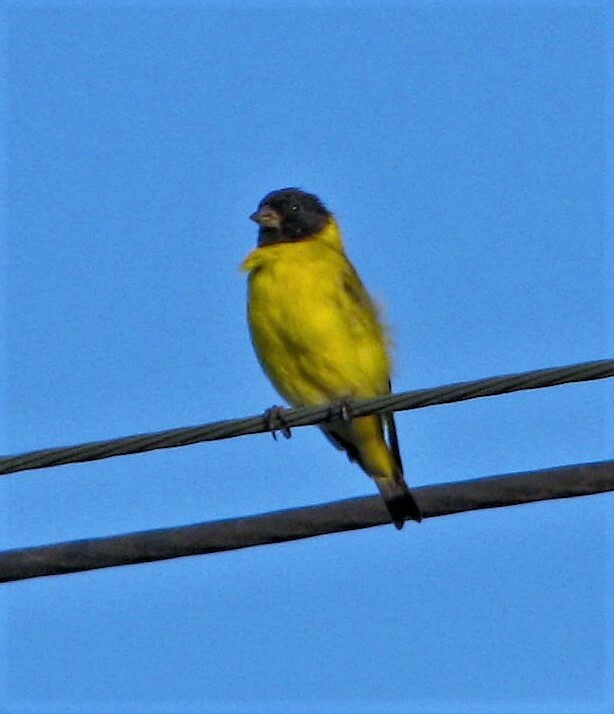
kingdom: Animalia
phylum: Chordata
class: Aves
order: Passeriformes
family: Fringillidae
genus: Spinus
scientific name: Spinus magellanicus
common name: Hooded siskin
